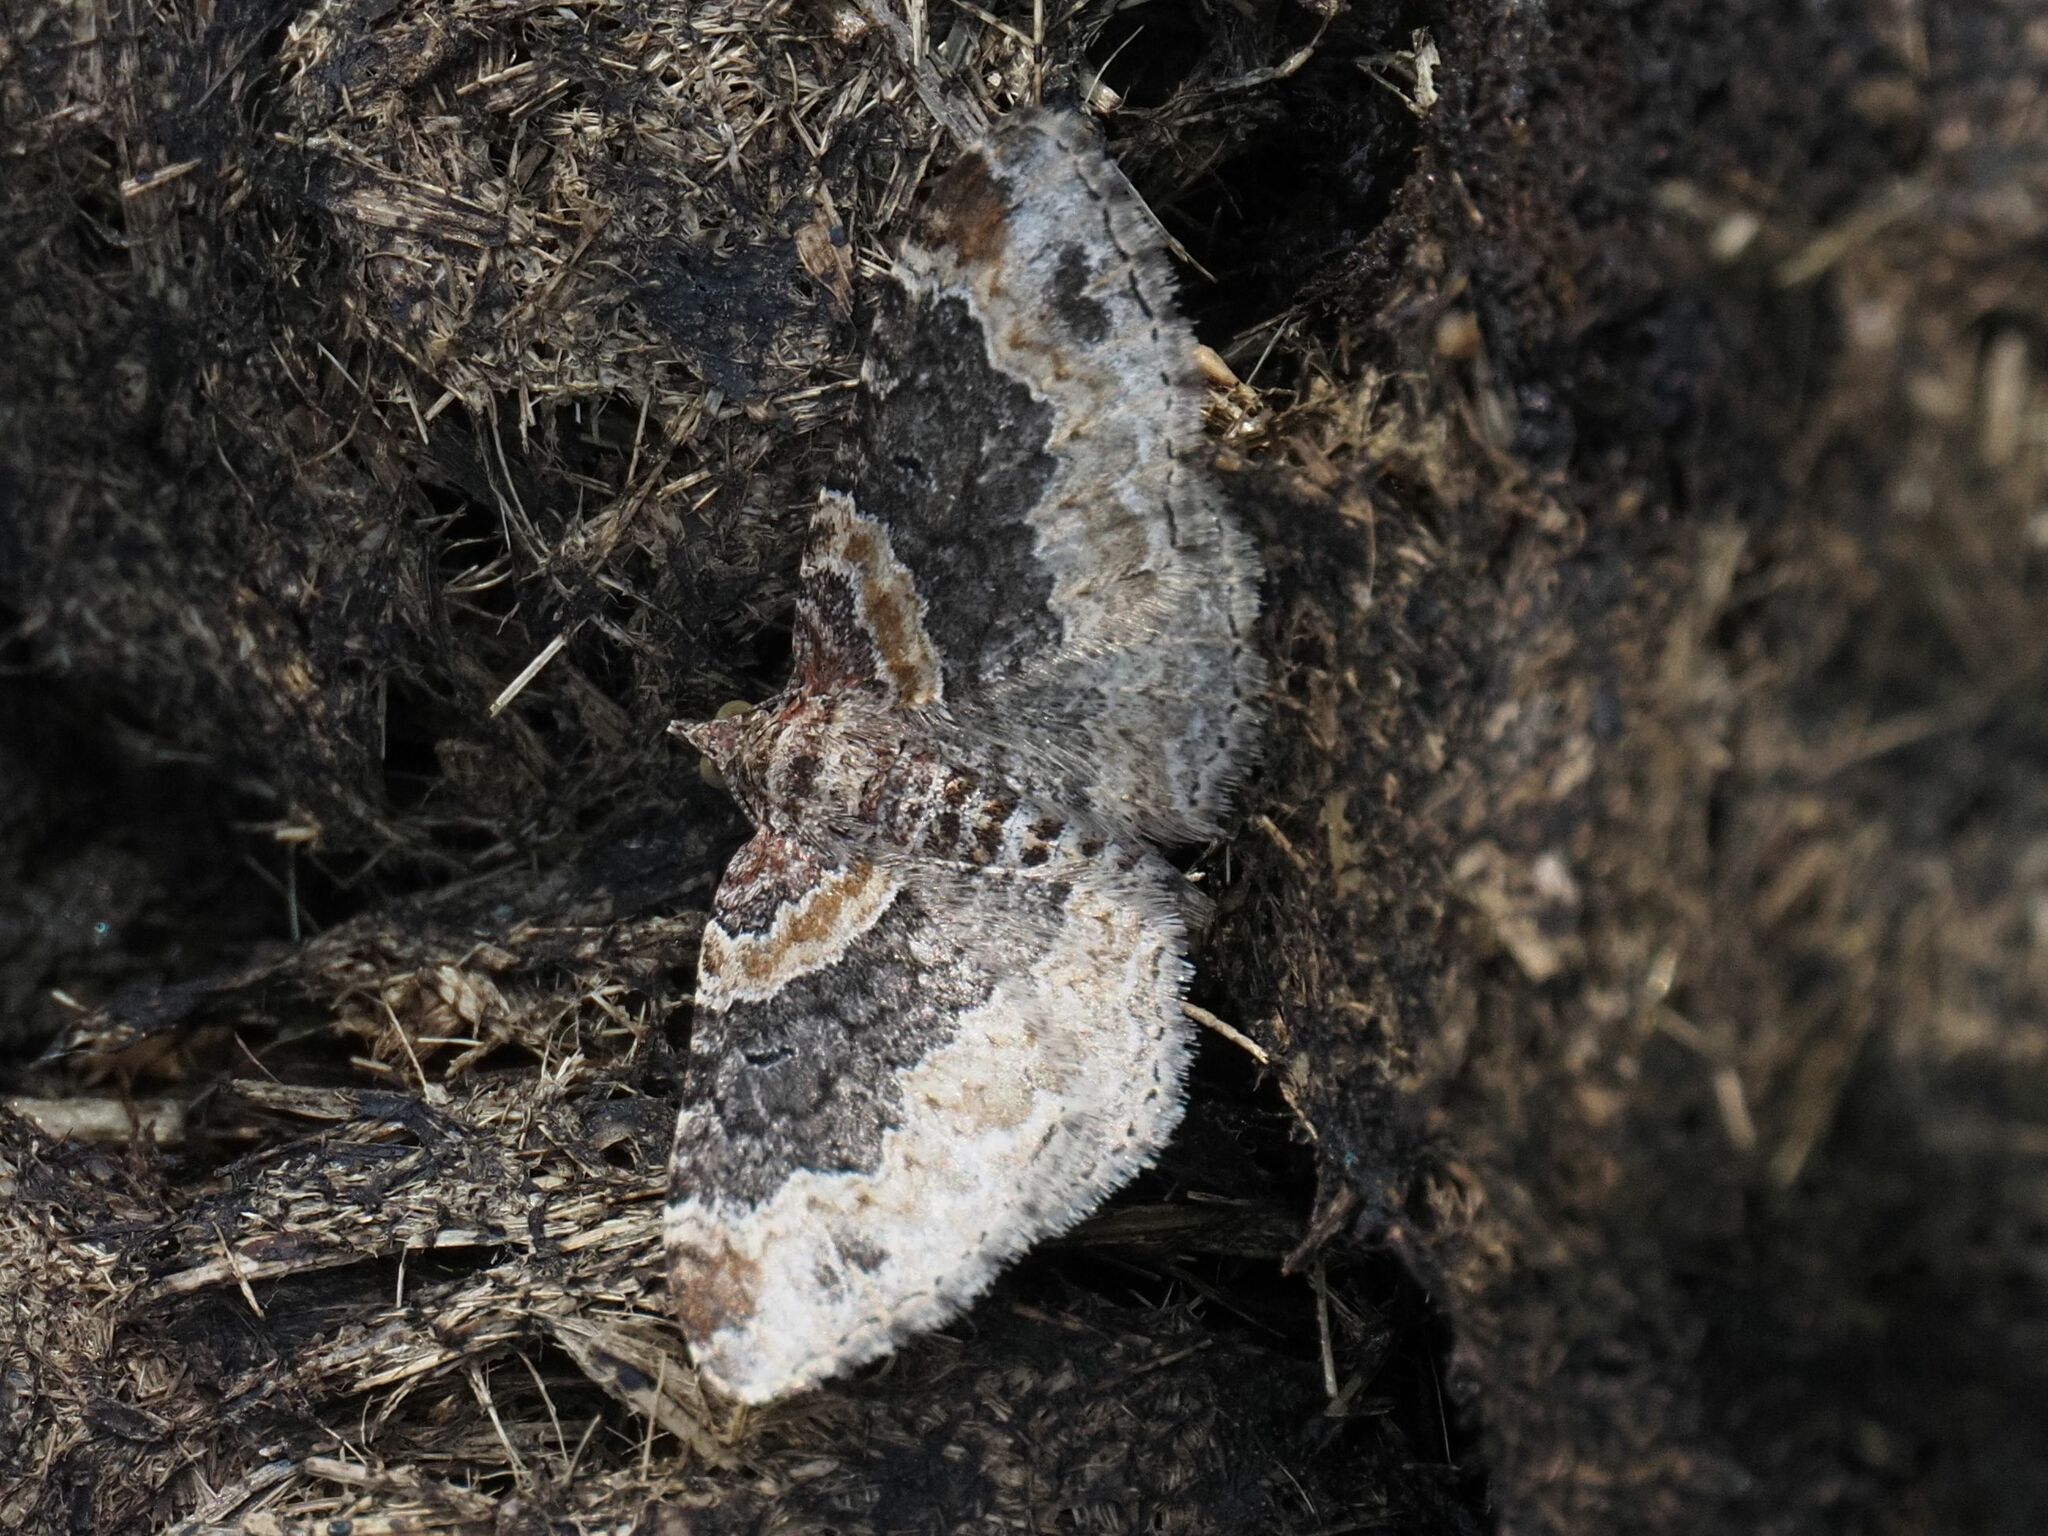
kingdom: Animalia
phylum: Arthropoda
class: Insecta
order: Lepidoptera
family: Geometridae
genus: Xanthorhoe
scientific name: Xanthorhoe ferrugata
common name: Dark-barred twin-spot carpet
